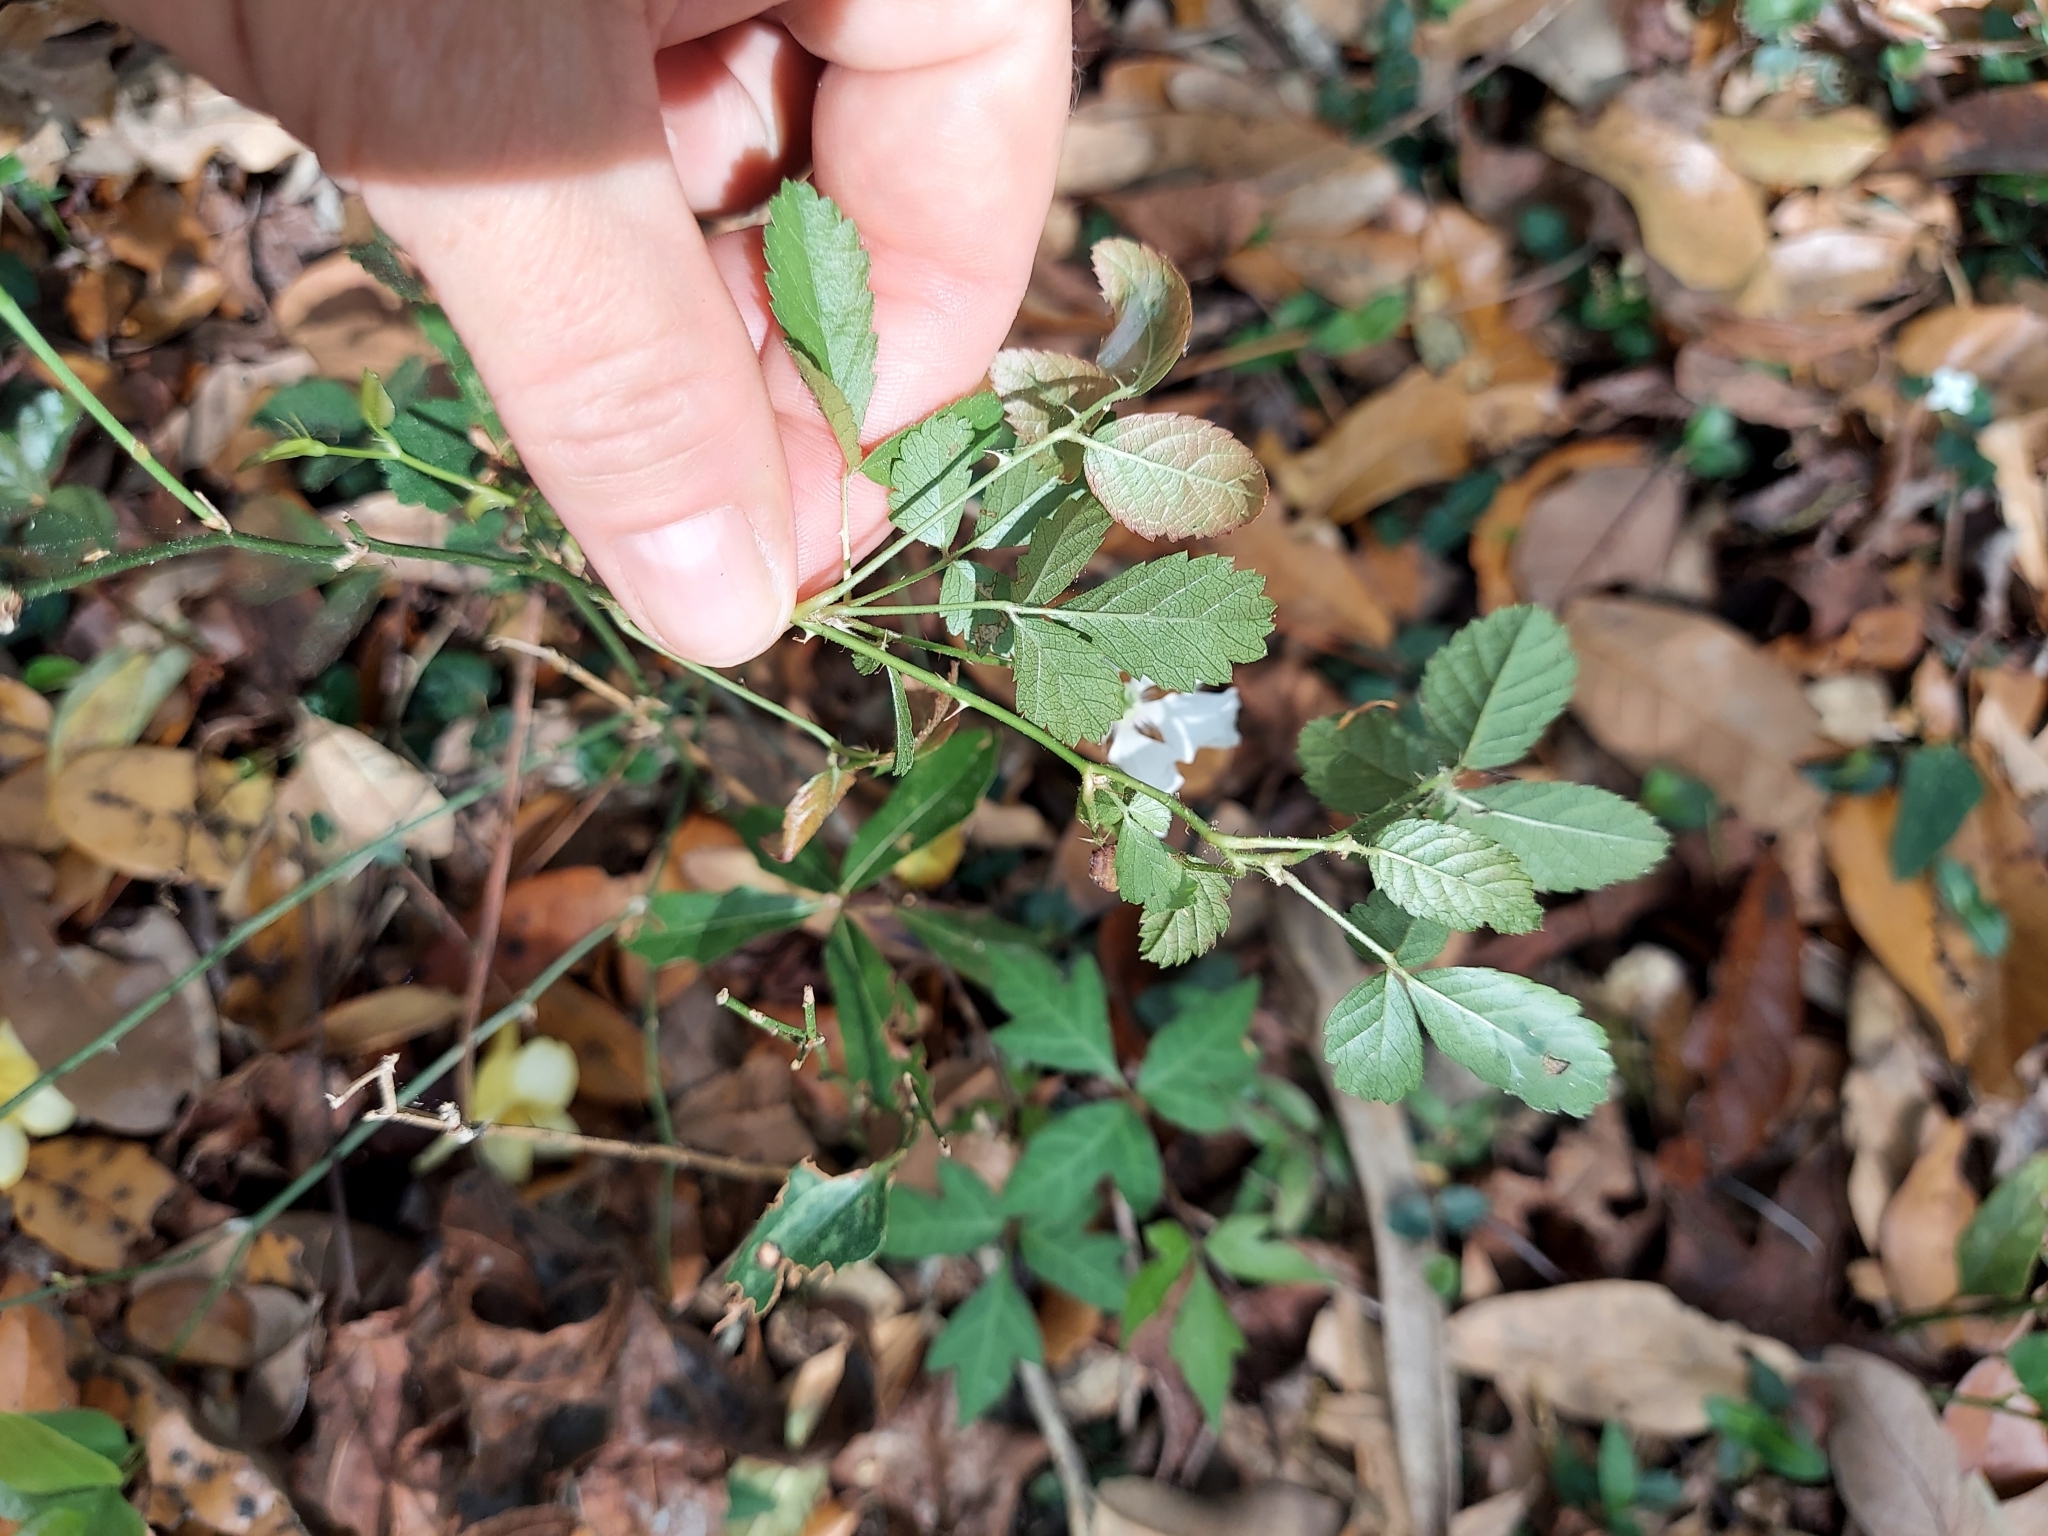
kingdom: Plantae
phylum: Tracheophyta
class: Magnoliopsida
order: Rosales
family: Rosaceae
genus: Rubus
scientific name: Rubus trivialis
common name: Southern dewberry
